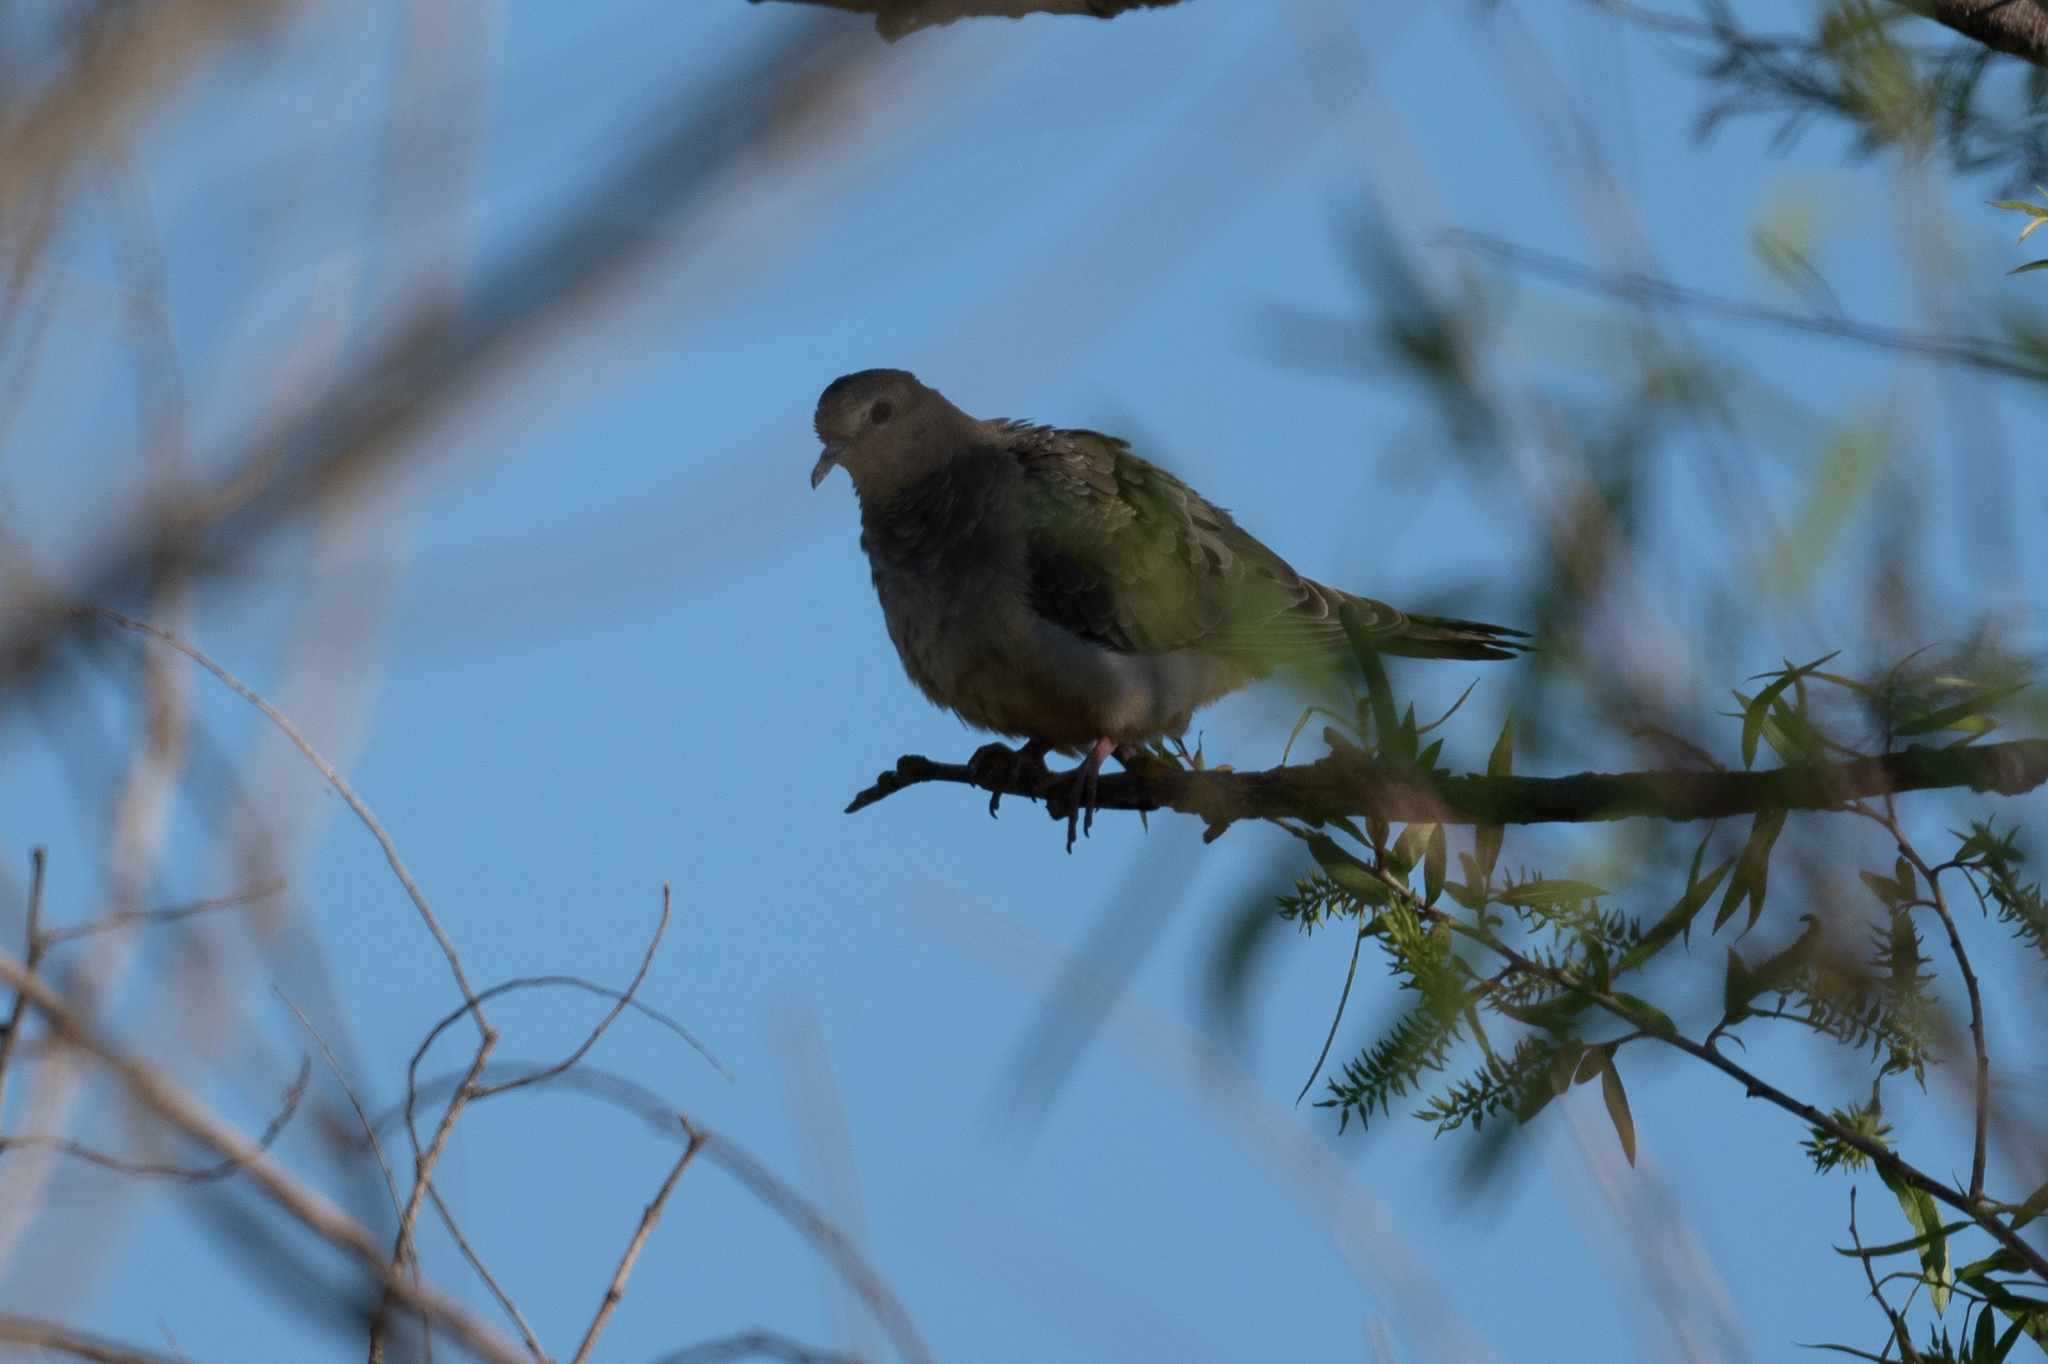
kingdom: Animalia
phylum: Chordata
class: Aves
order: Columbiformes
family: Columbidae
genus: Zenaida
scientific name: Zenaida macroura
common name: Mourning dove
